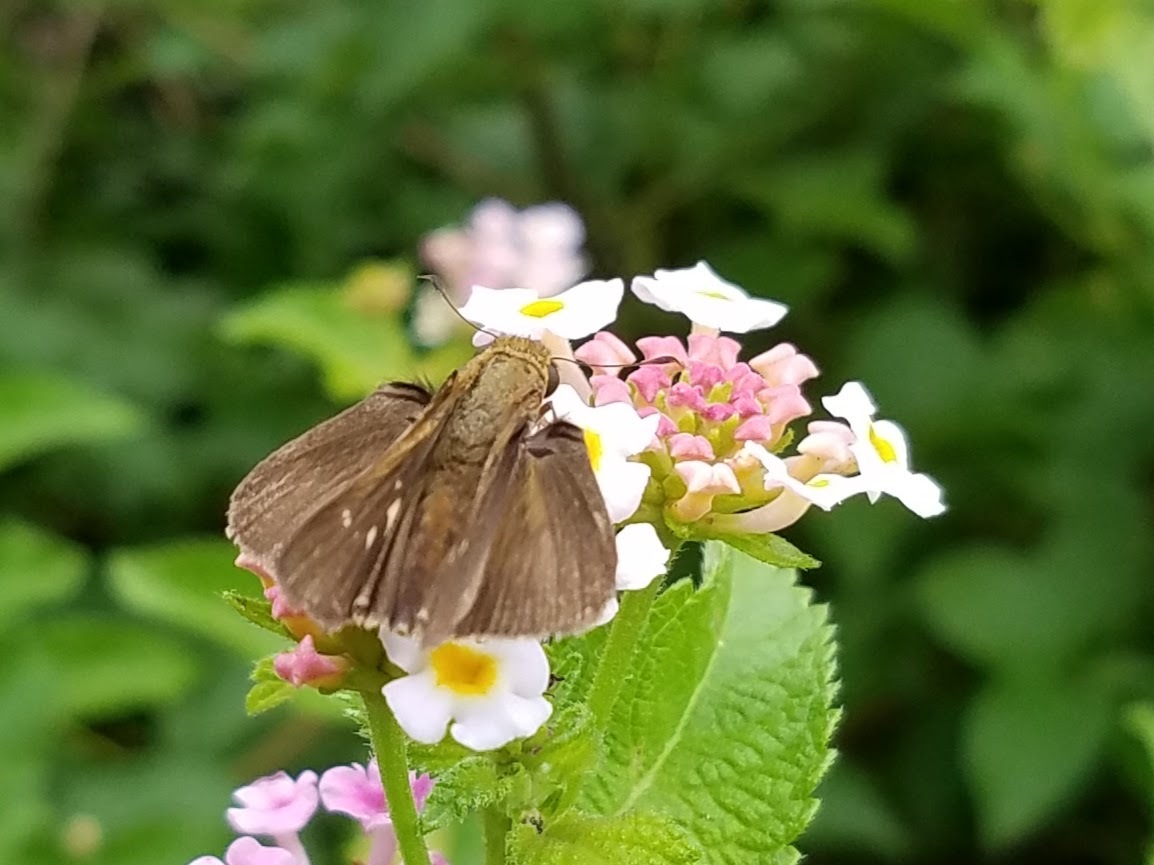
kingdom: Animalia
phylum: Arthropoda
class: Insecta
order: Lepidoptera
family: Hesperiidae
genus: Panoquina
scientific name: Panoquina ocola
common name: Ocola skipper
